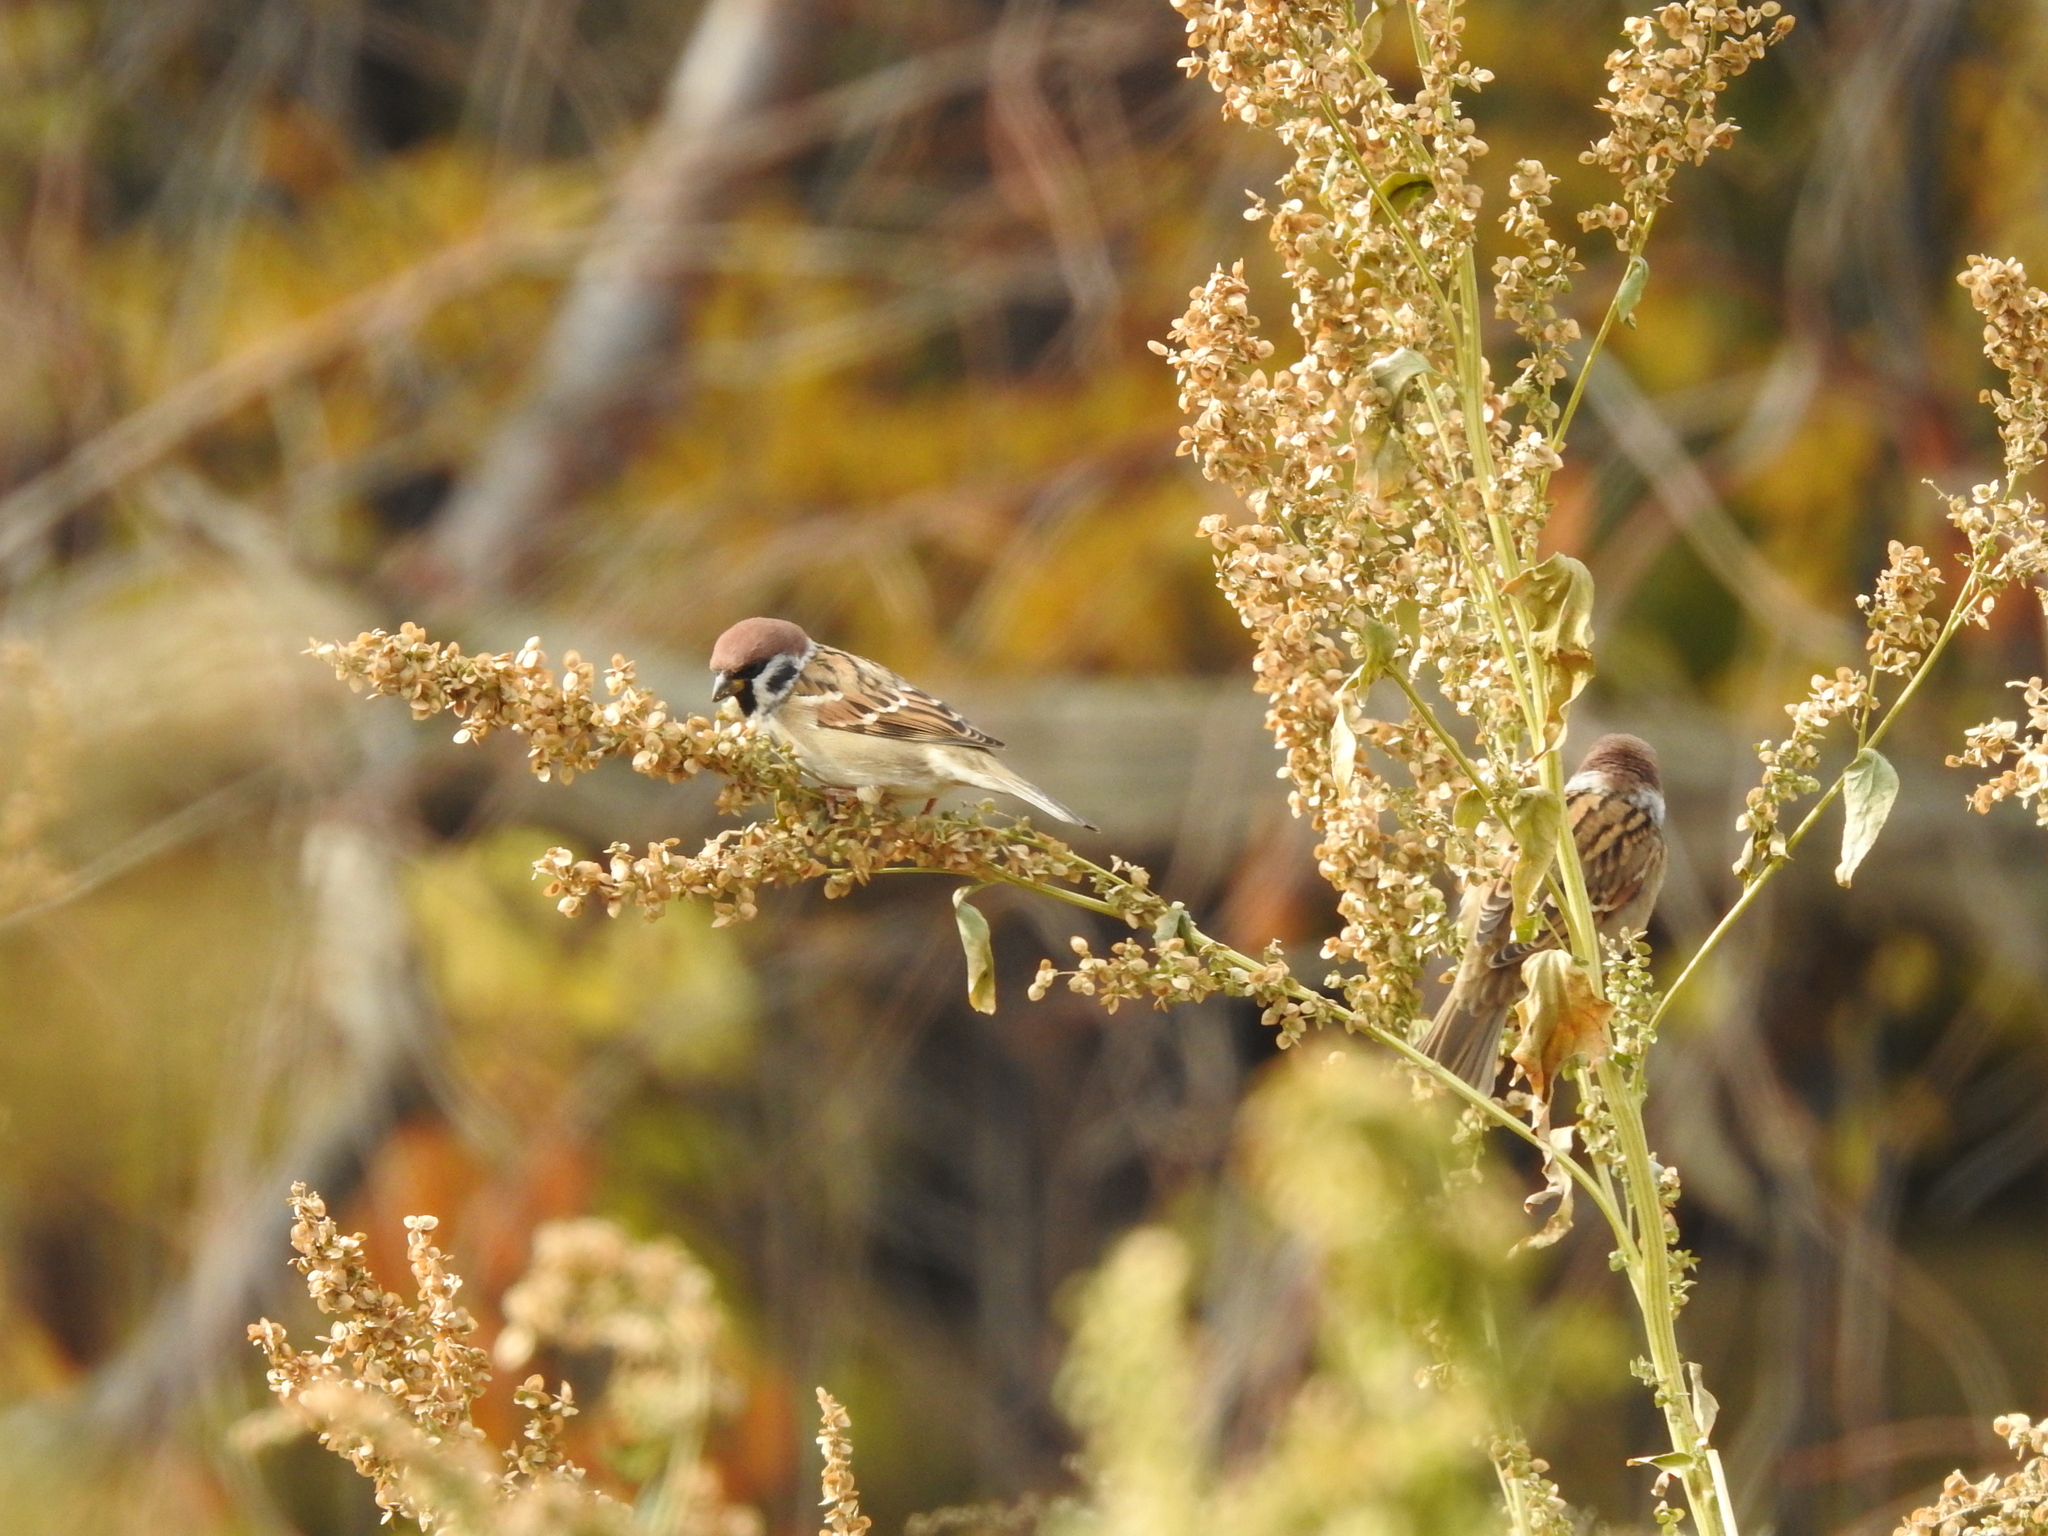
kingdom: Animalia
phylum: Chordata
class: Aves
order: Passeriformes
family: Passeridae
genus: Passer
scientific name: Passer montanus
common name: Eurasian tree sparrow
